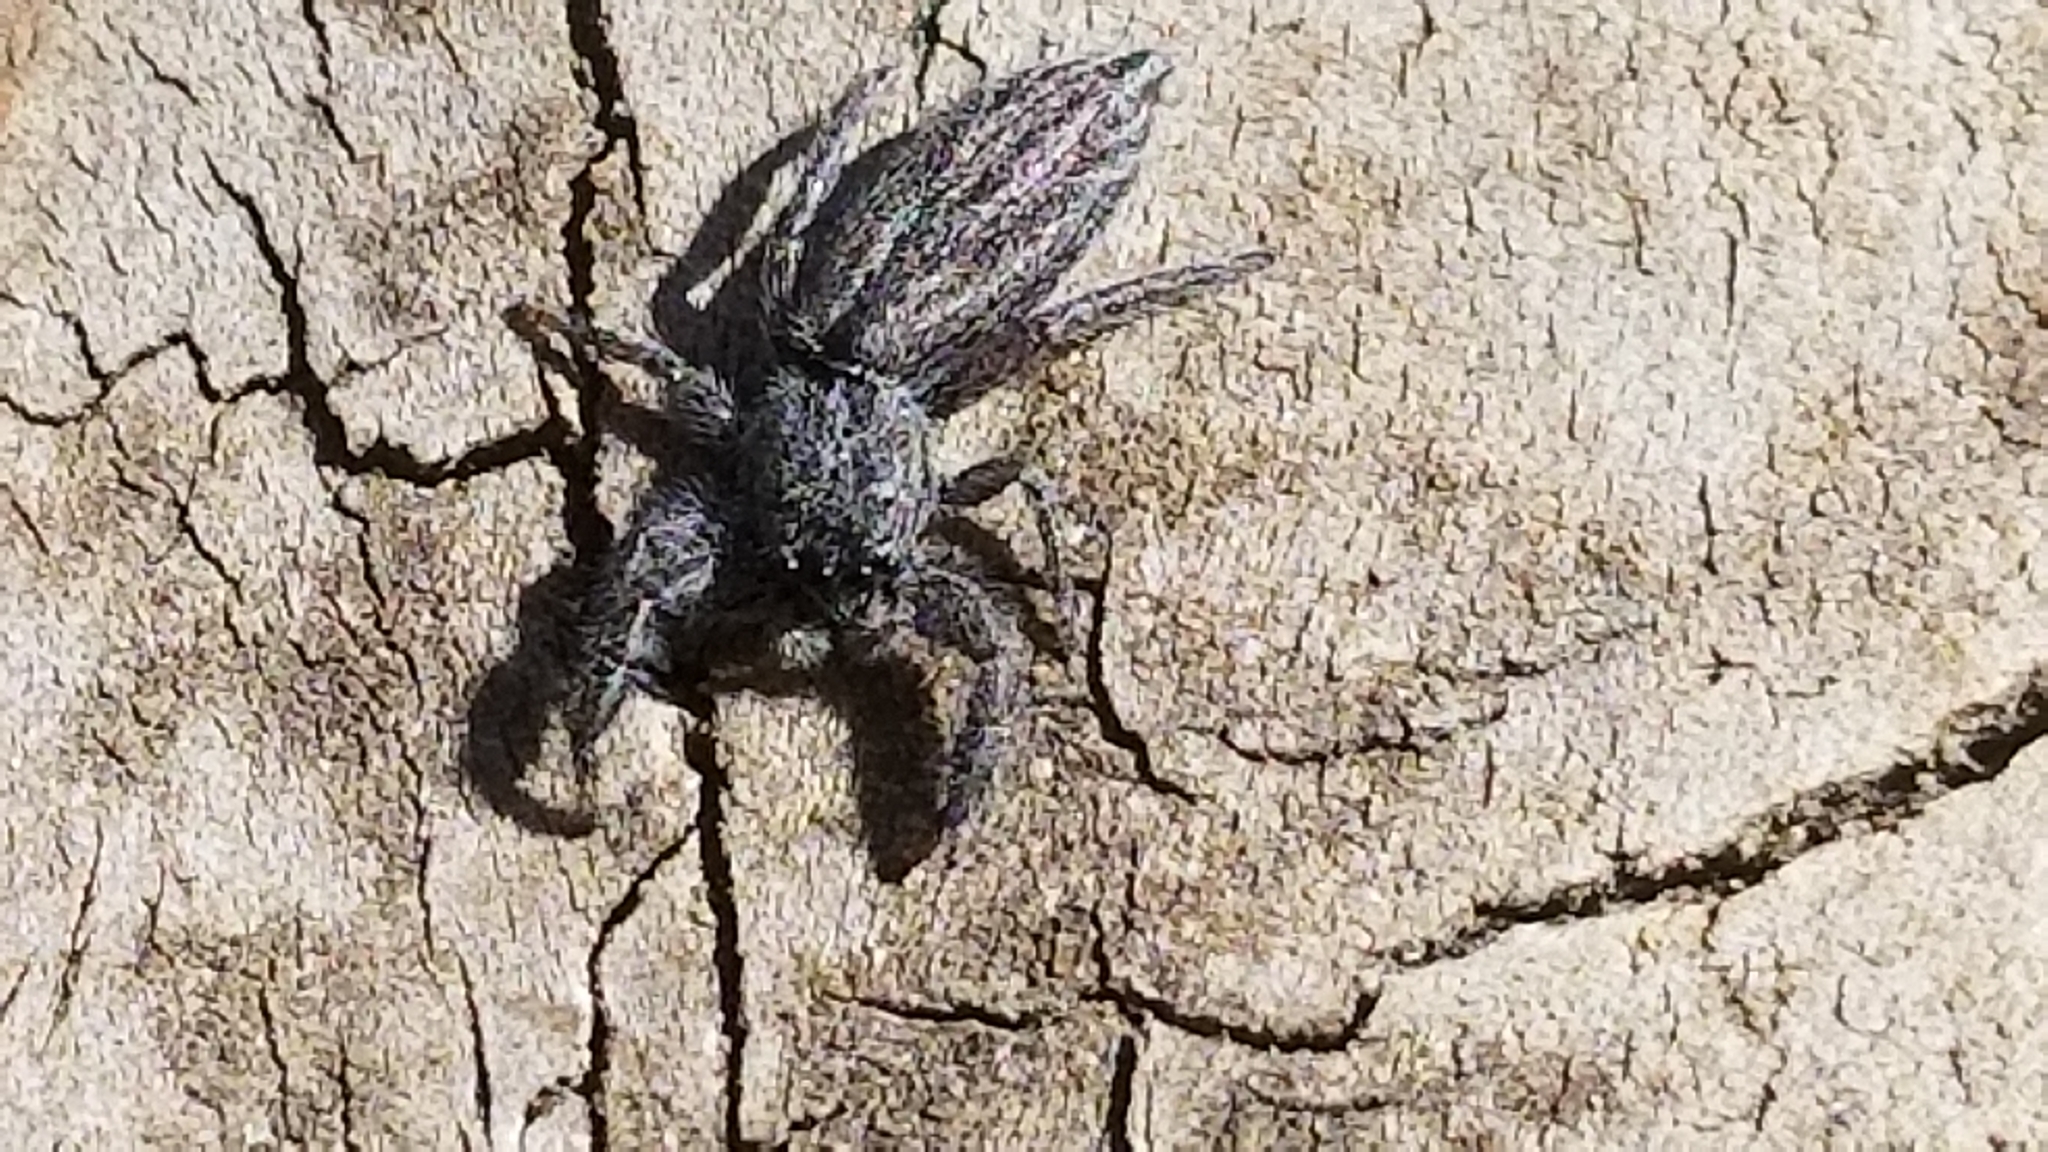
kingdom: Animalia
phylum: Arthropoda
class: Arachnida
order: Araneae
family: Salticidae
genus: Holoplatys
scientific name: Holoplatys apressus
